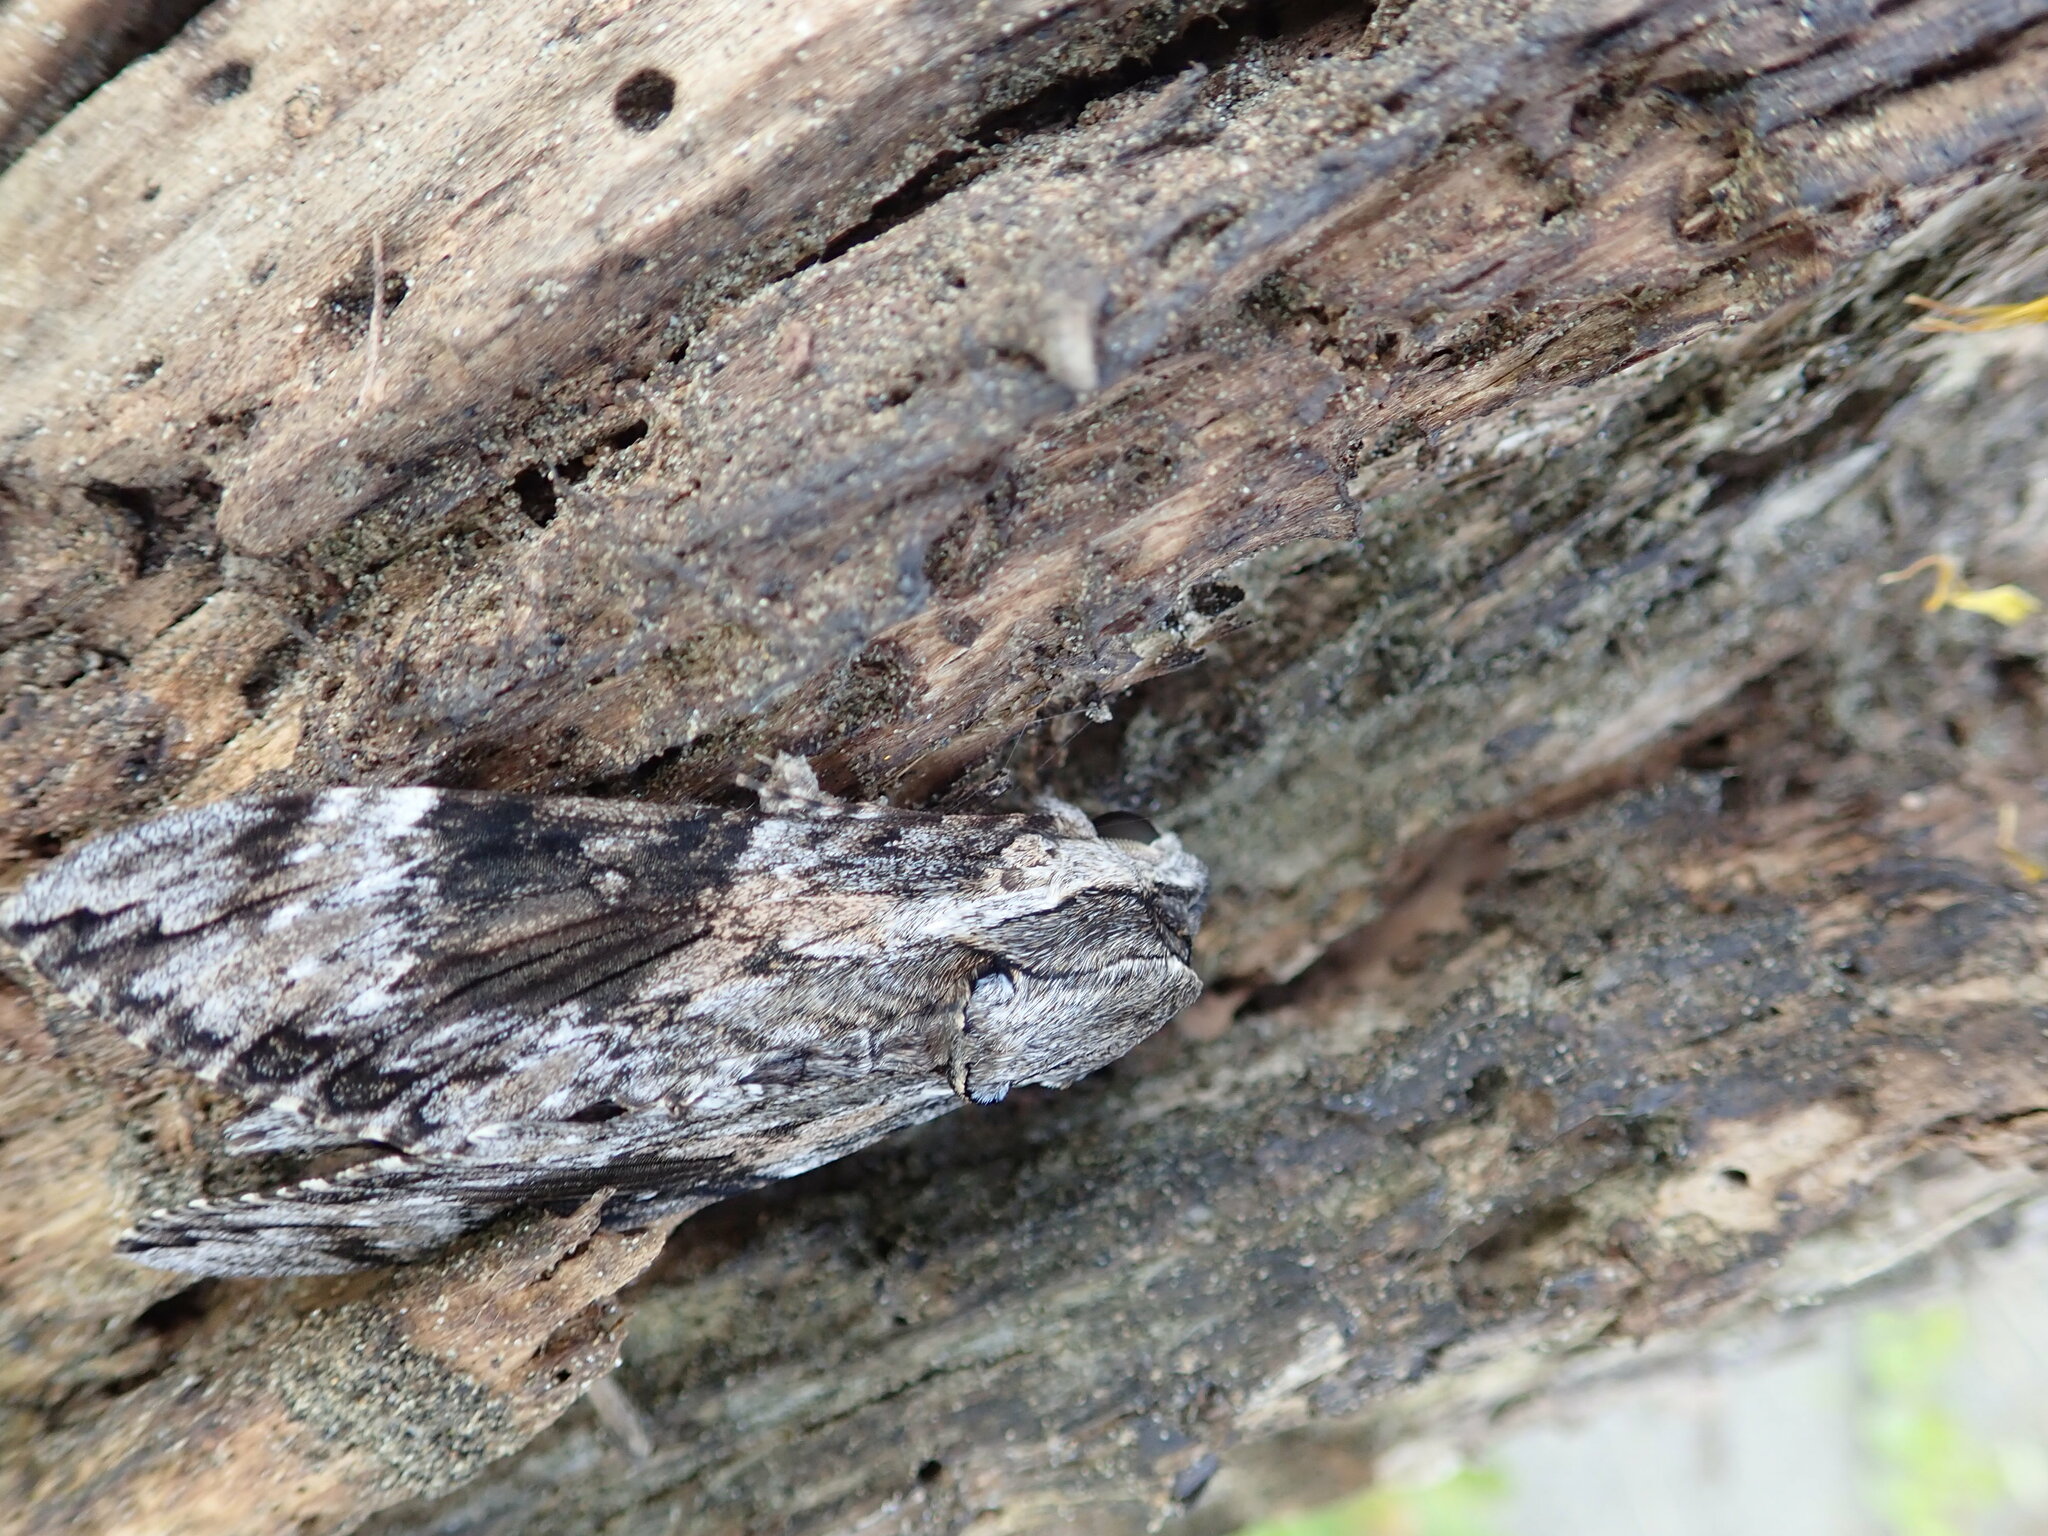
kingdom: Animalia
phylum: Arthropoda
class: Insecta
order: Lepidoptera
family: Sphingidae
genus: Agrius
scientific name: Agrius convolvuli
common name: Convolvulus hawkmoth
